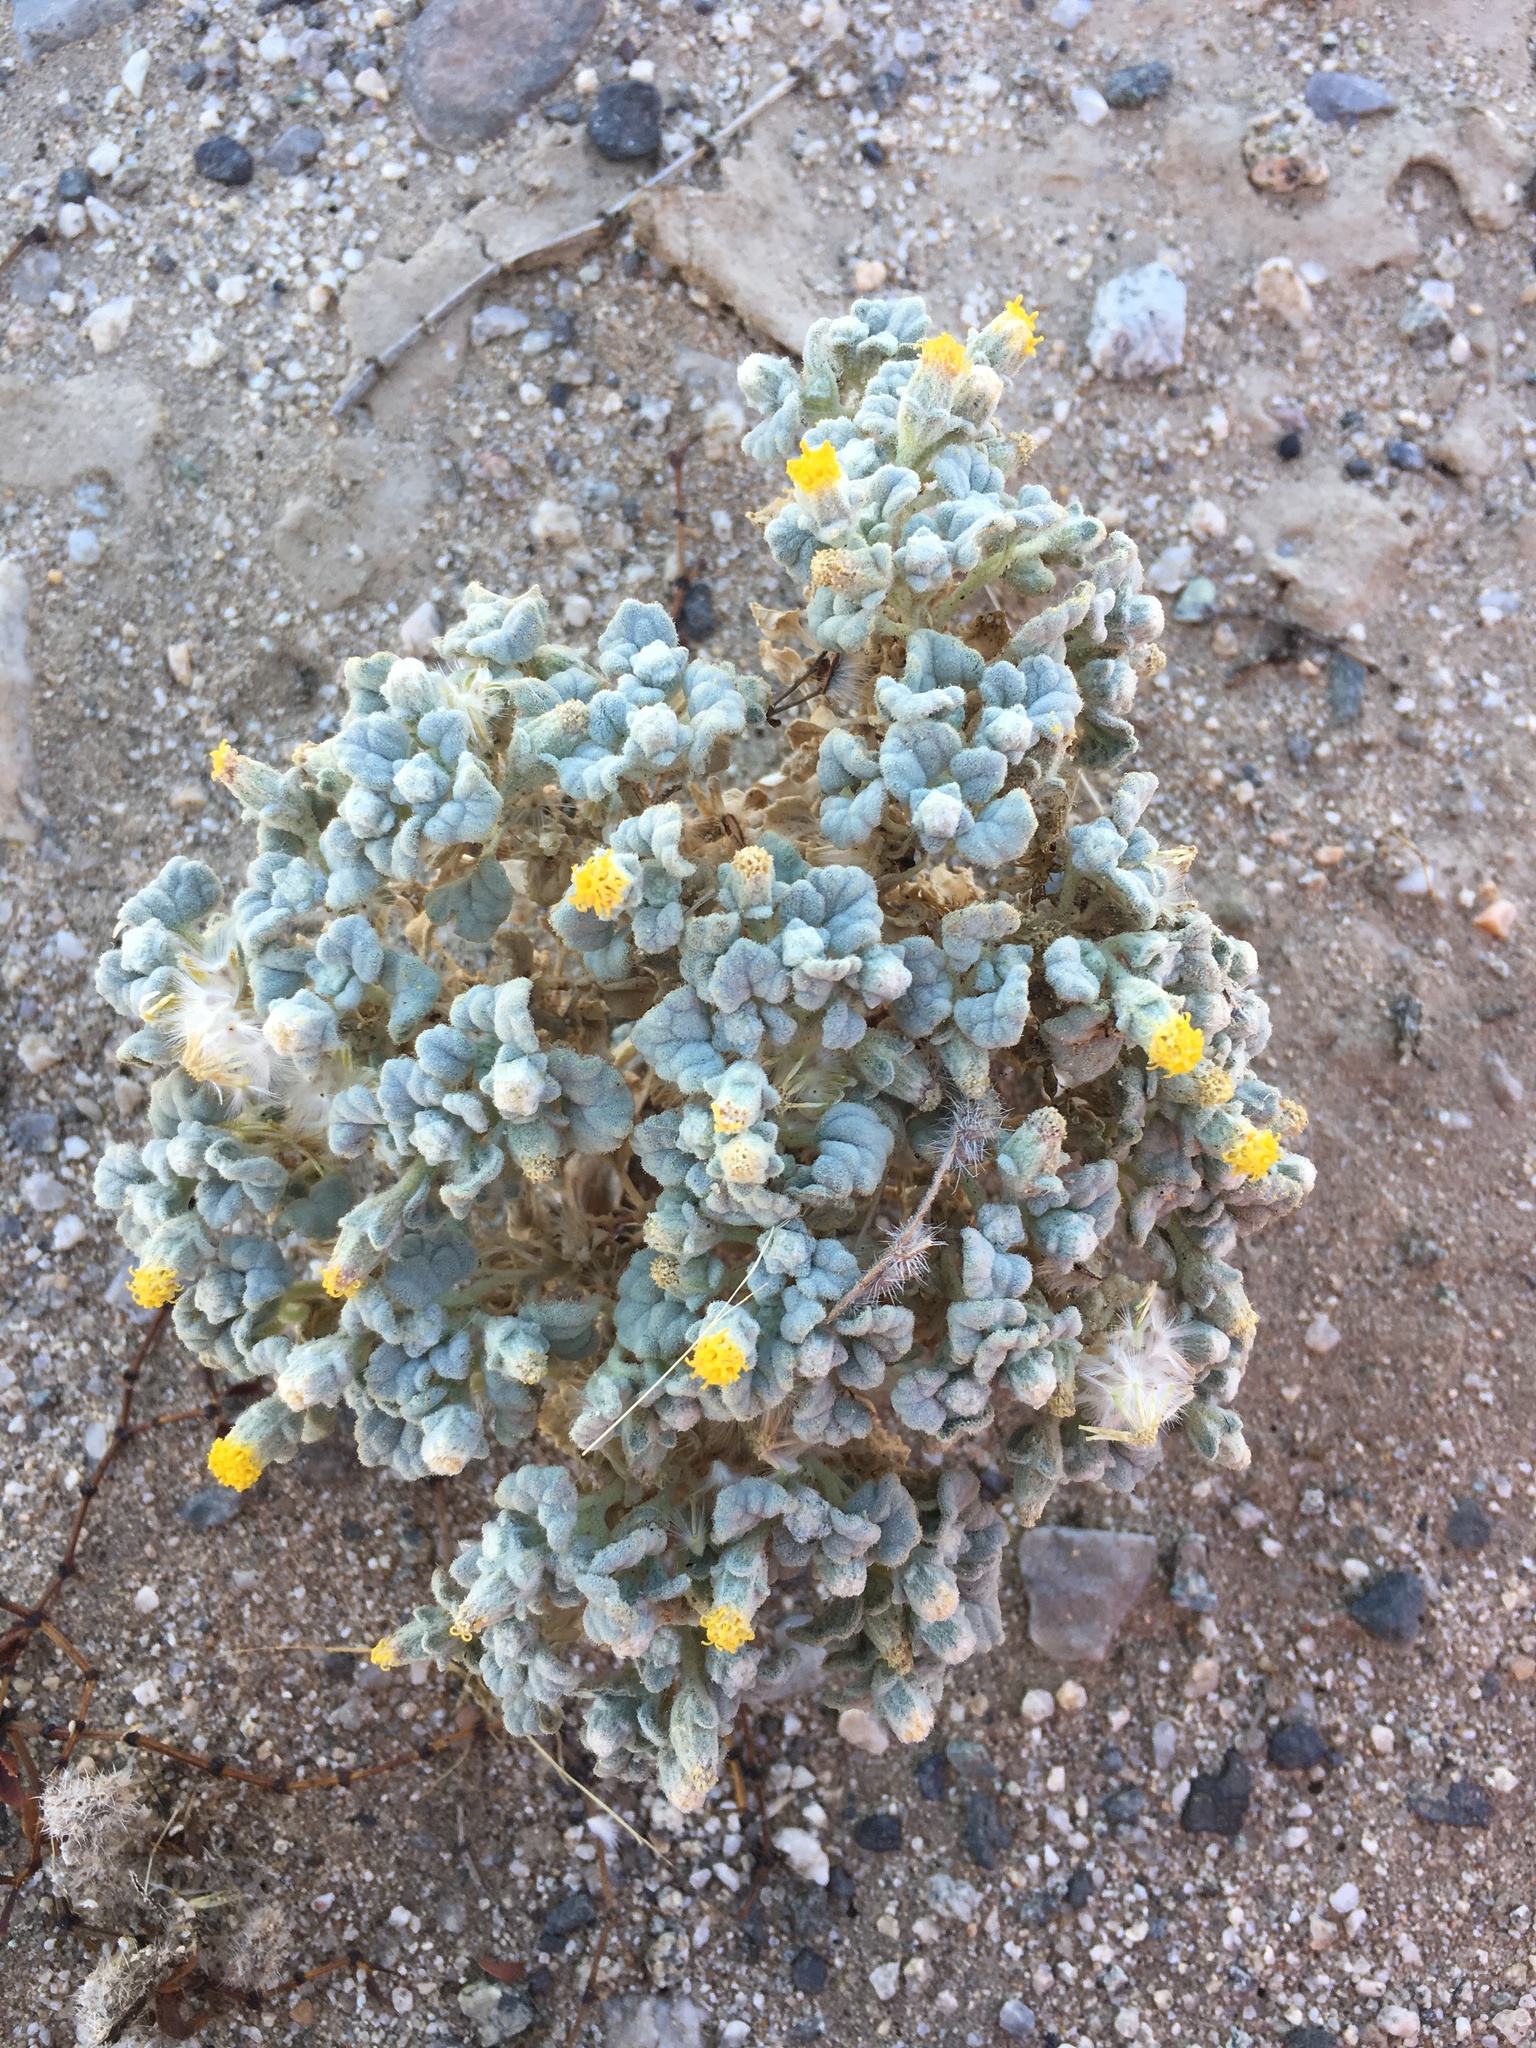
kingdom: Plantae
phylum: Tracheophyta
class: Magnoliopsida
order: Asterales
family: Asteraceae
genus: Psathyrotes
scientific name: Psathyrotes ramosissima
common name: Turtleback
